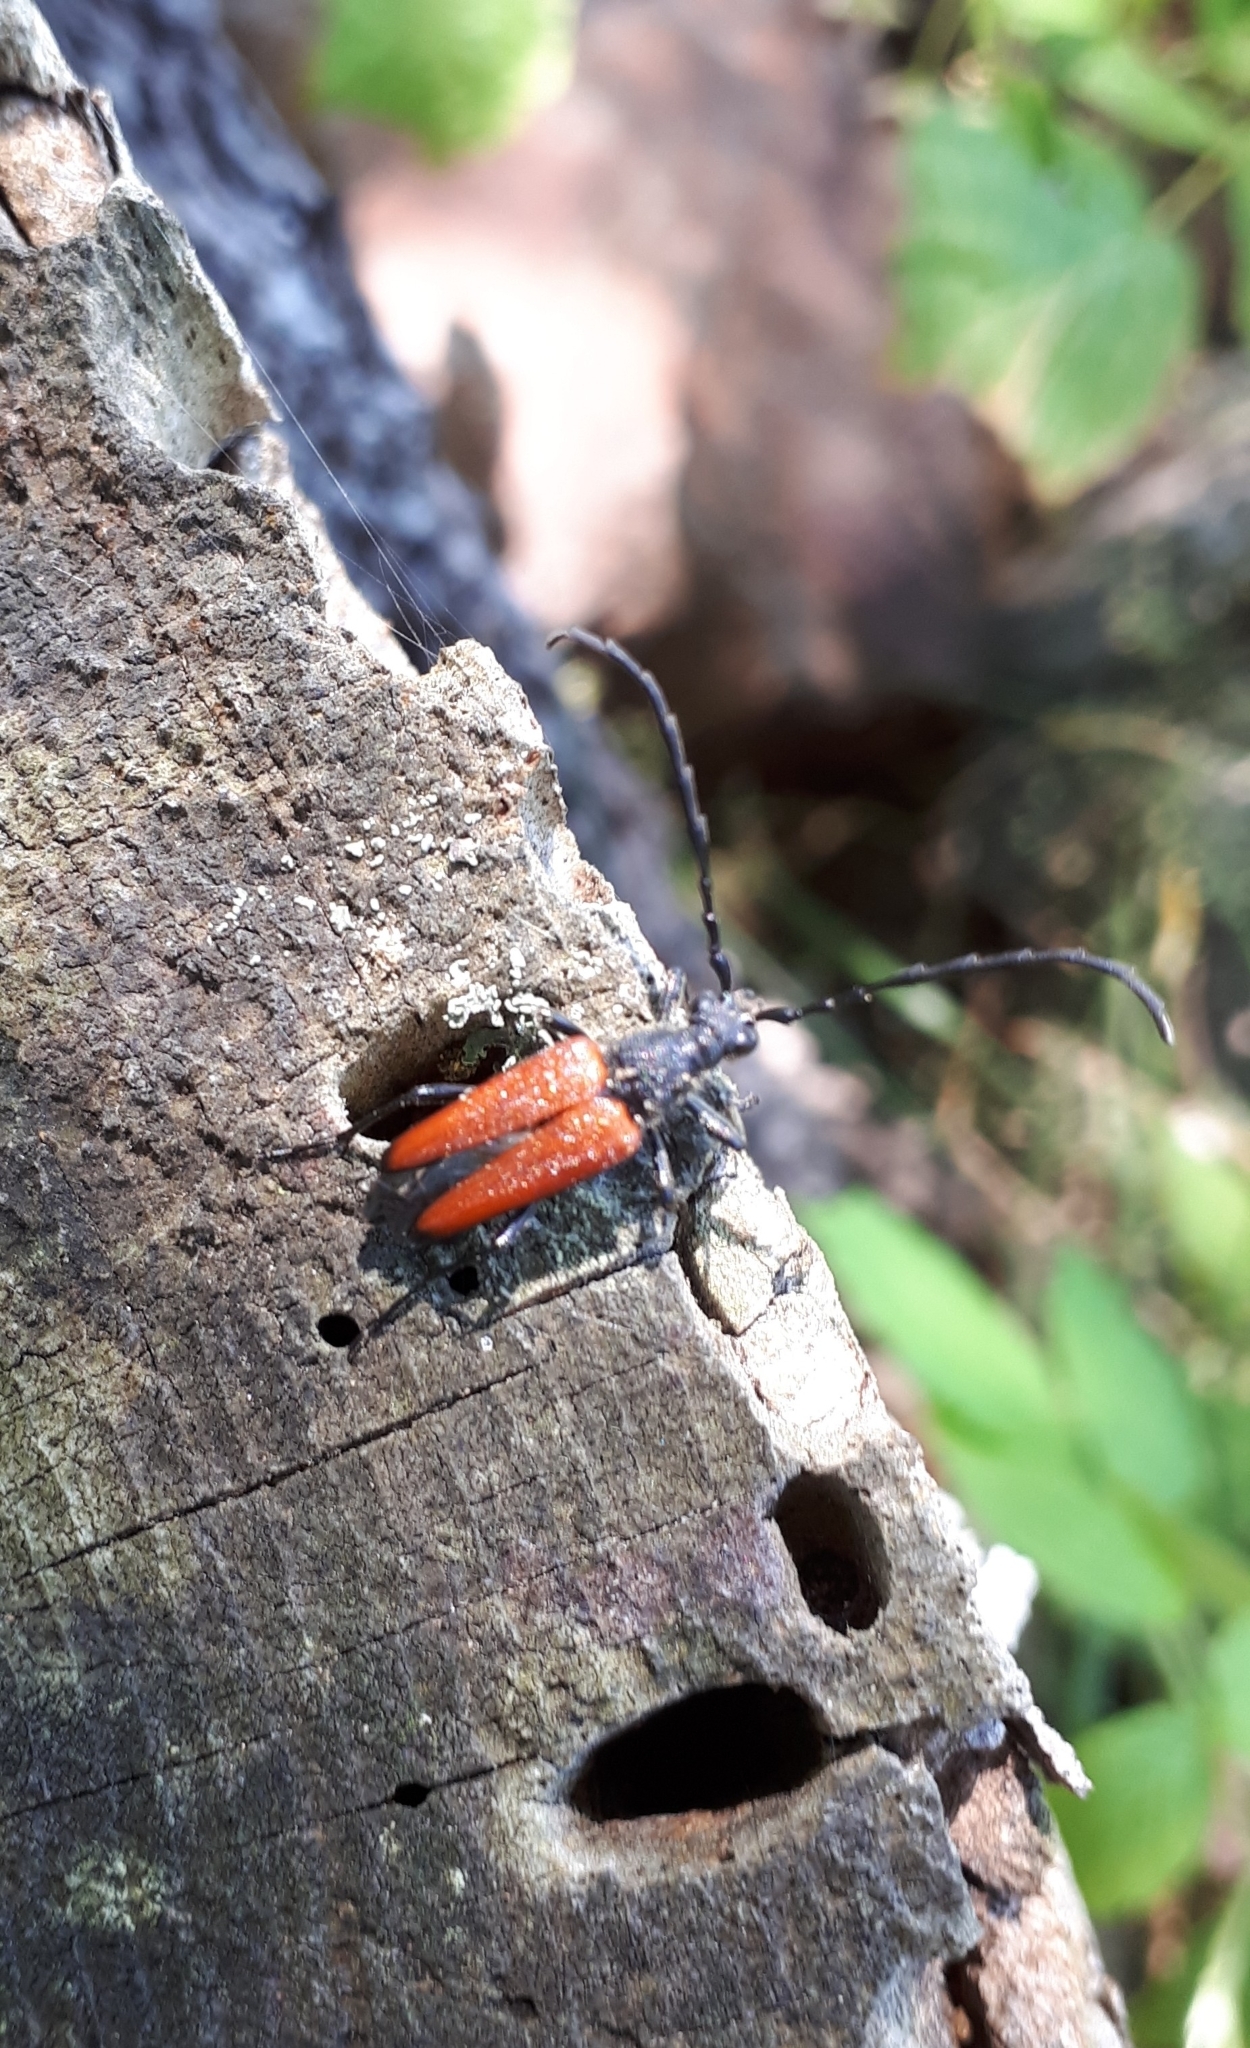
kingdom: Animalia
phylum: Arthropoda
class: Insecta
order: Coleoptera
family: Cerambycidae
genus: Stictoleptura
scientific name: Stictoleptura canadensis
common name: Red-shouldered pine borer
